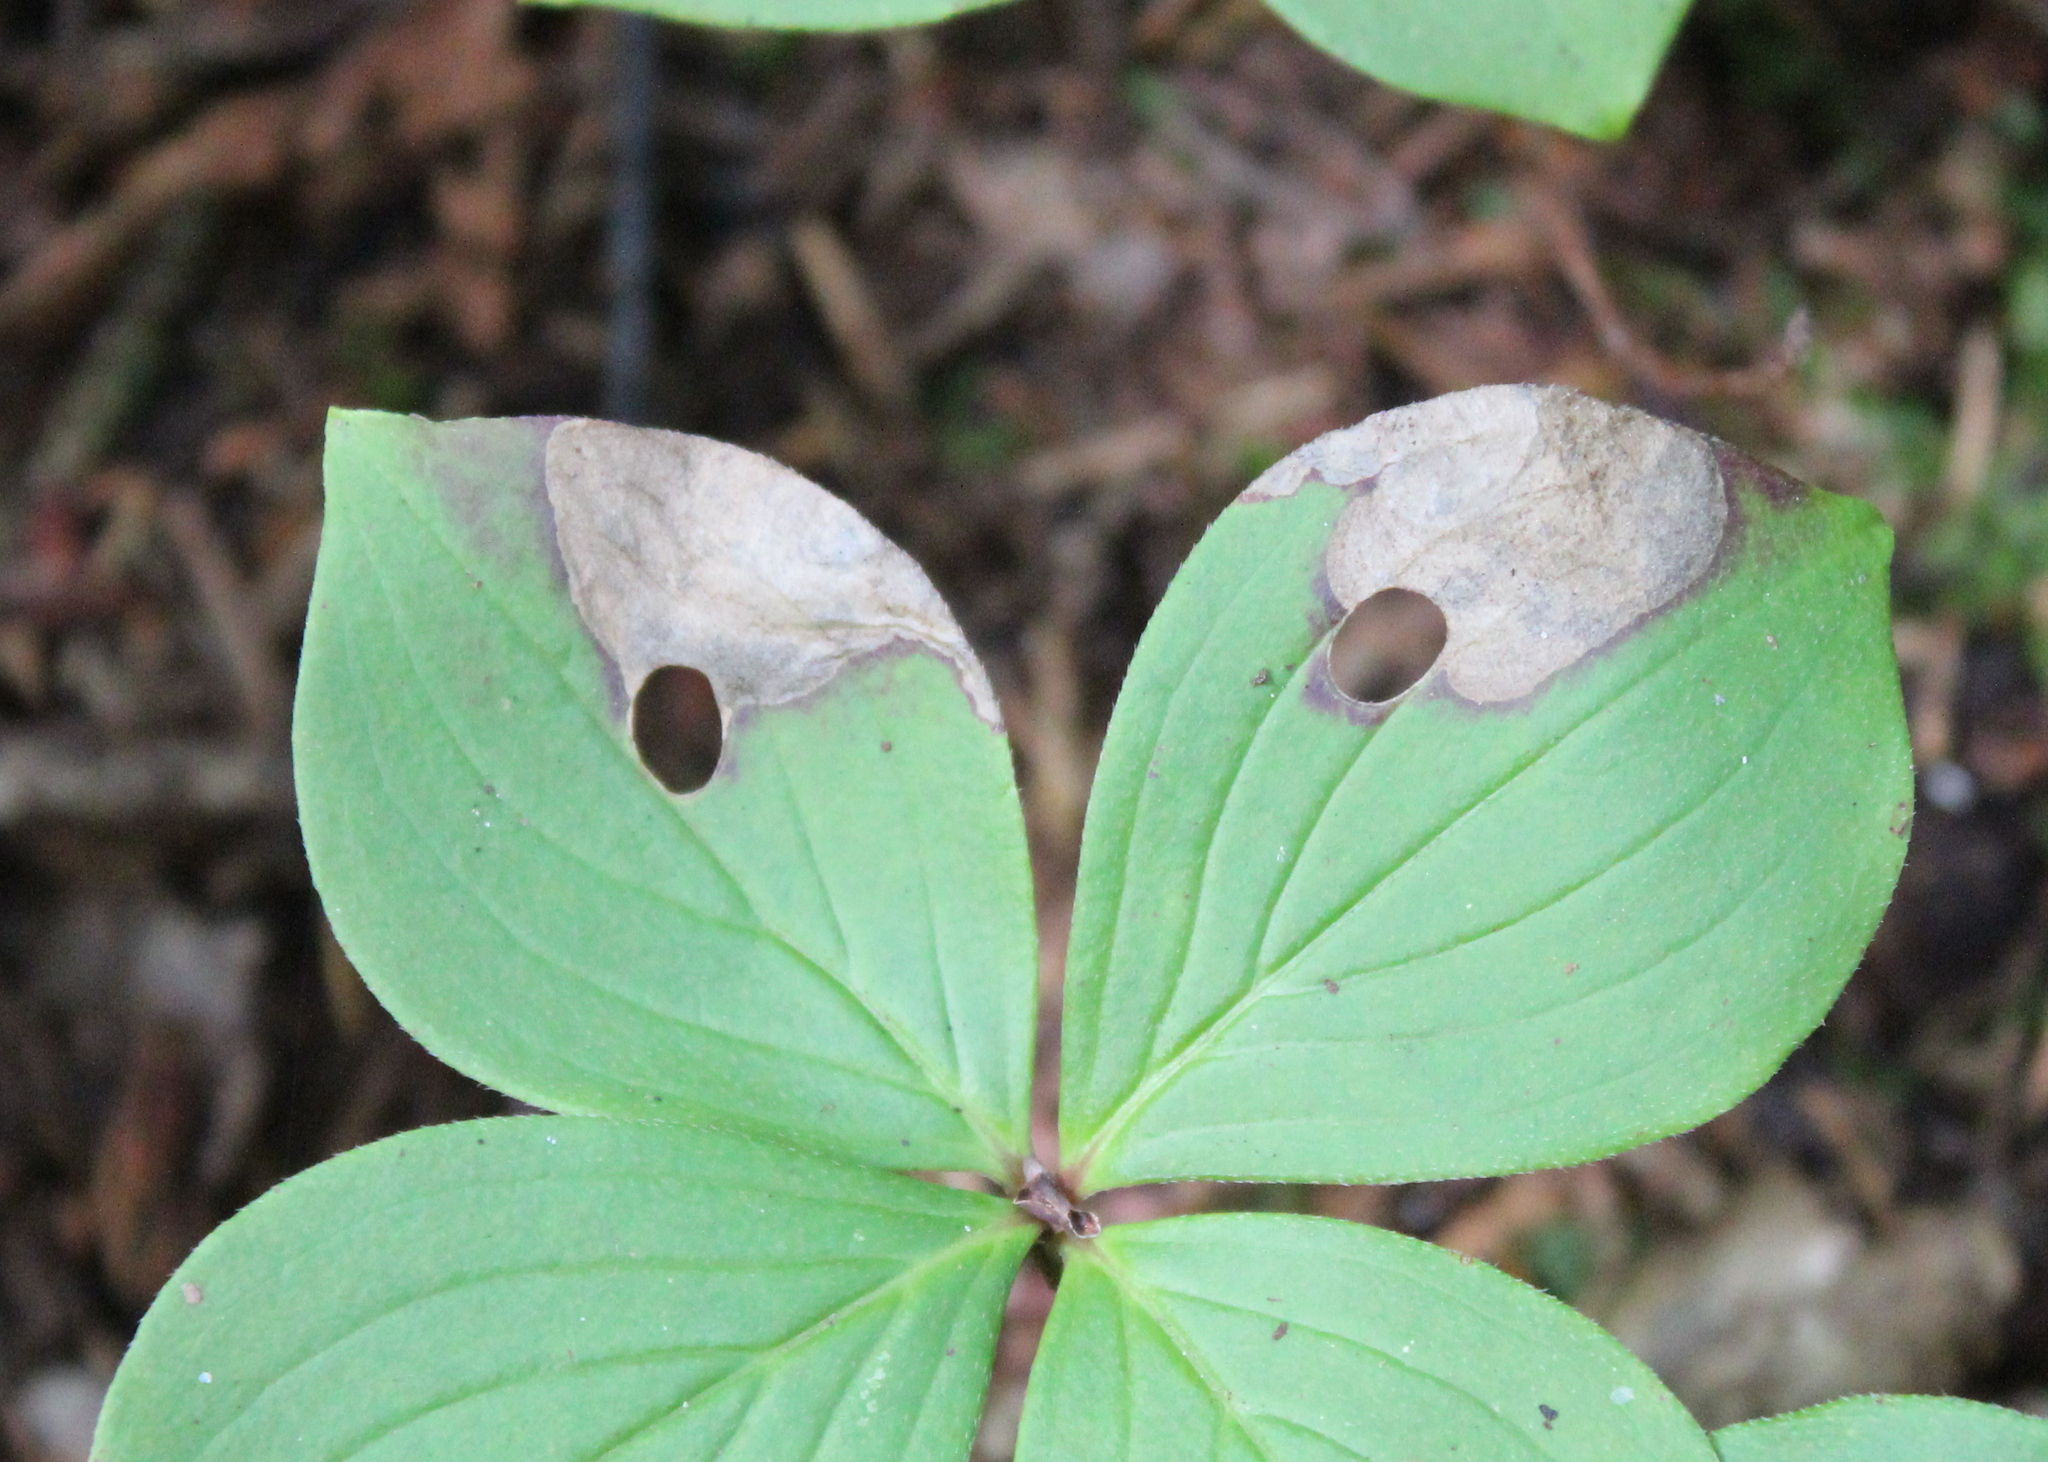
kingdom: Animalia
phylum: Arthropoda
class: Insecta
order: Lepidoptera
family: Heliozelidae
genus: Antispila
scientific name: Antispila freemani
